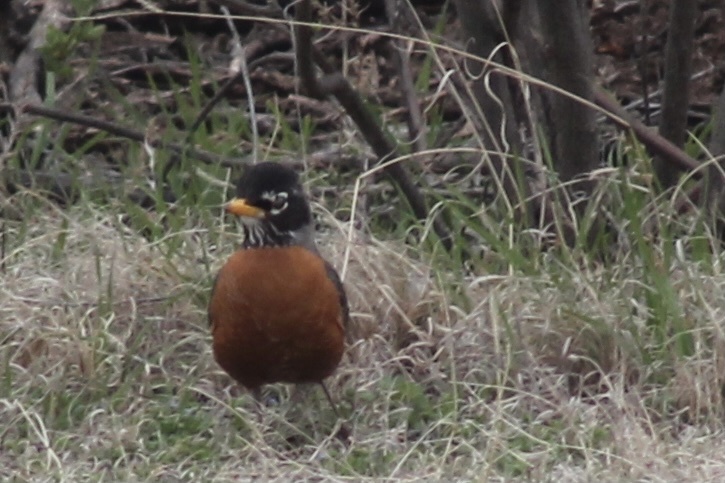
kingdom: Animalia
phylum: Chordata
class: Aves
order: Passeriformes
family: Turdidae
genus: Turdus
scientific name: Turdus migratorius
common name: American robin
